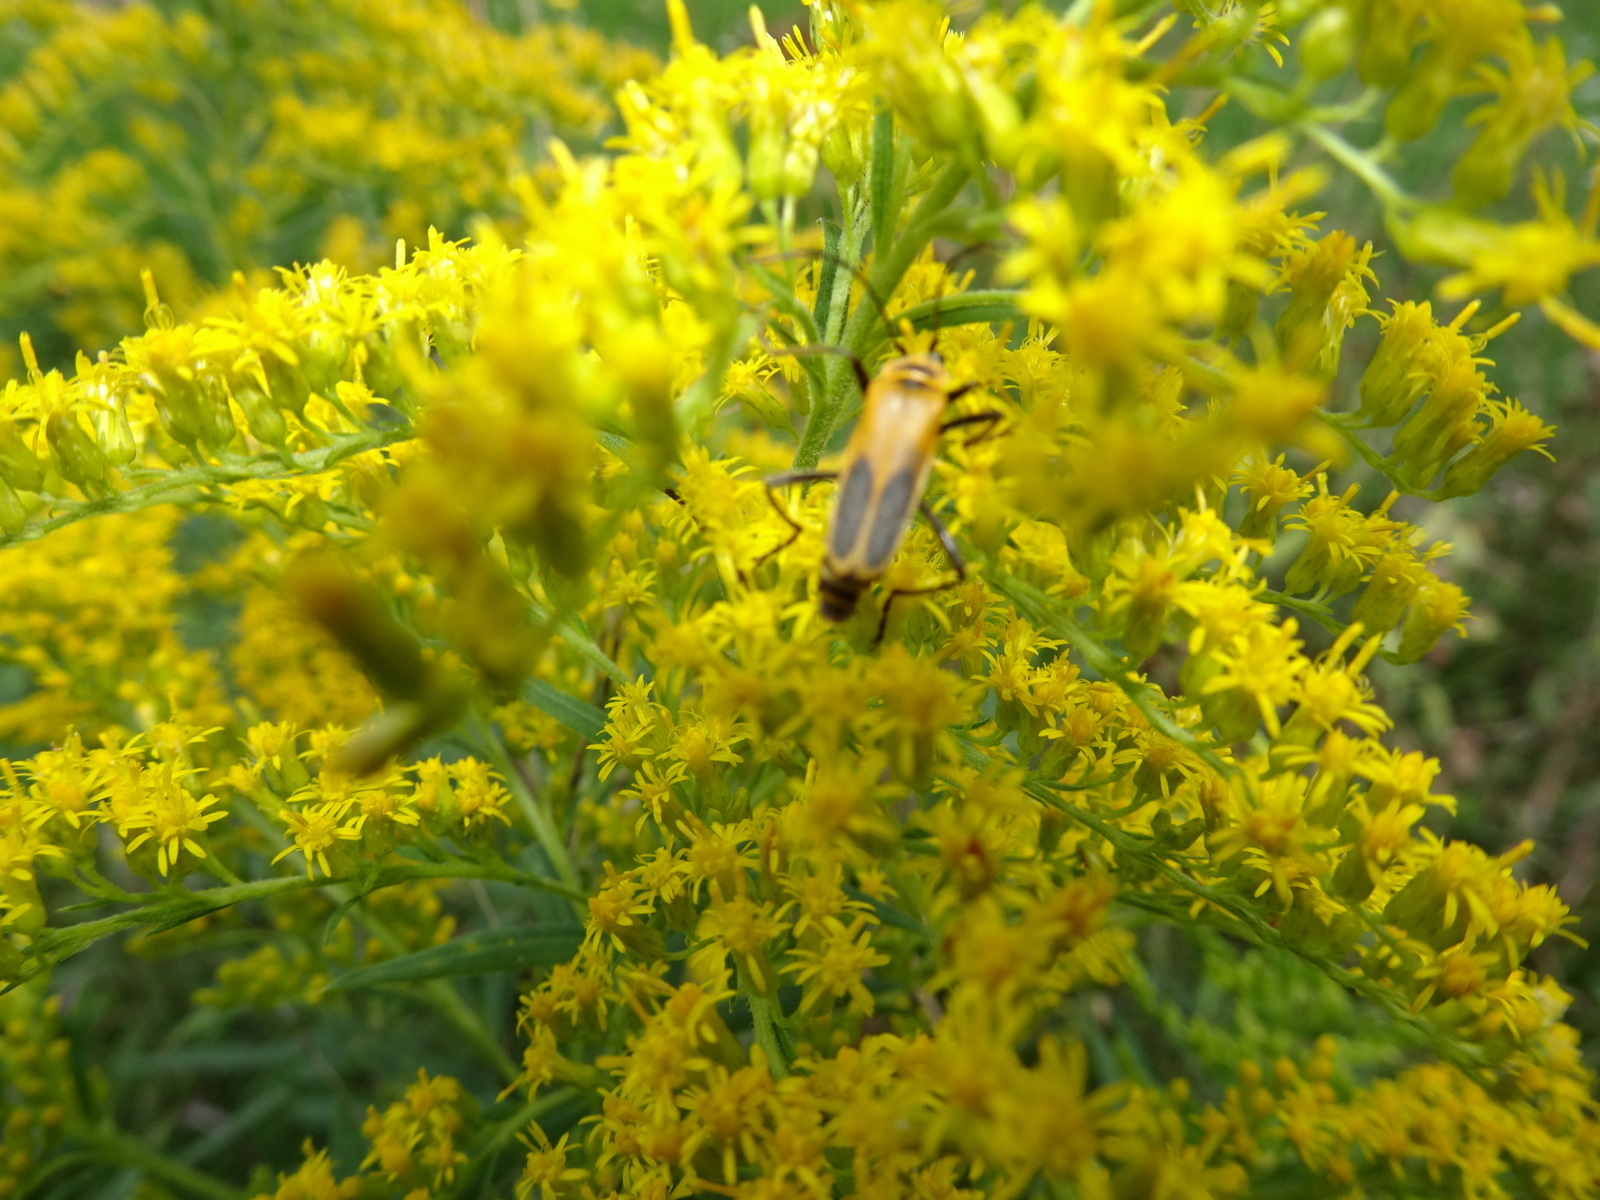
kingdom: Animalia
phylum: Arthropoda
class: Insecta
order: Coleoptera
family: Cantharidae
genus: Chauliognathus
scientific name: Chauliognathus pensylvanicus
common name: Goldenrod soldier beetle
